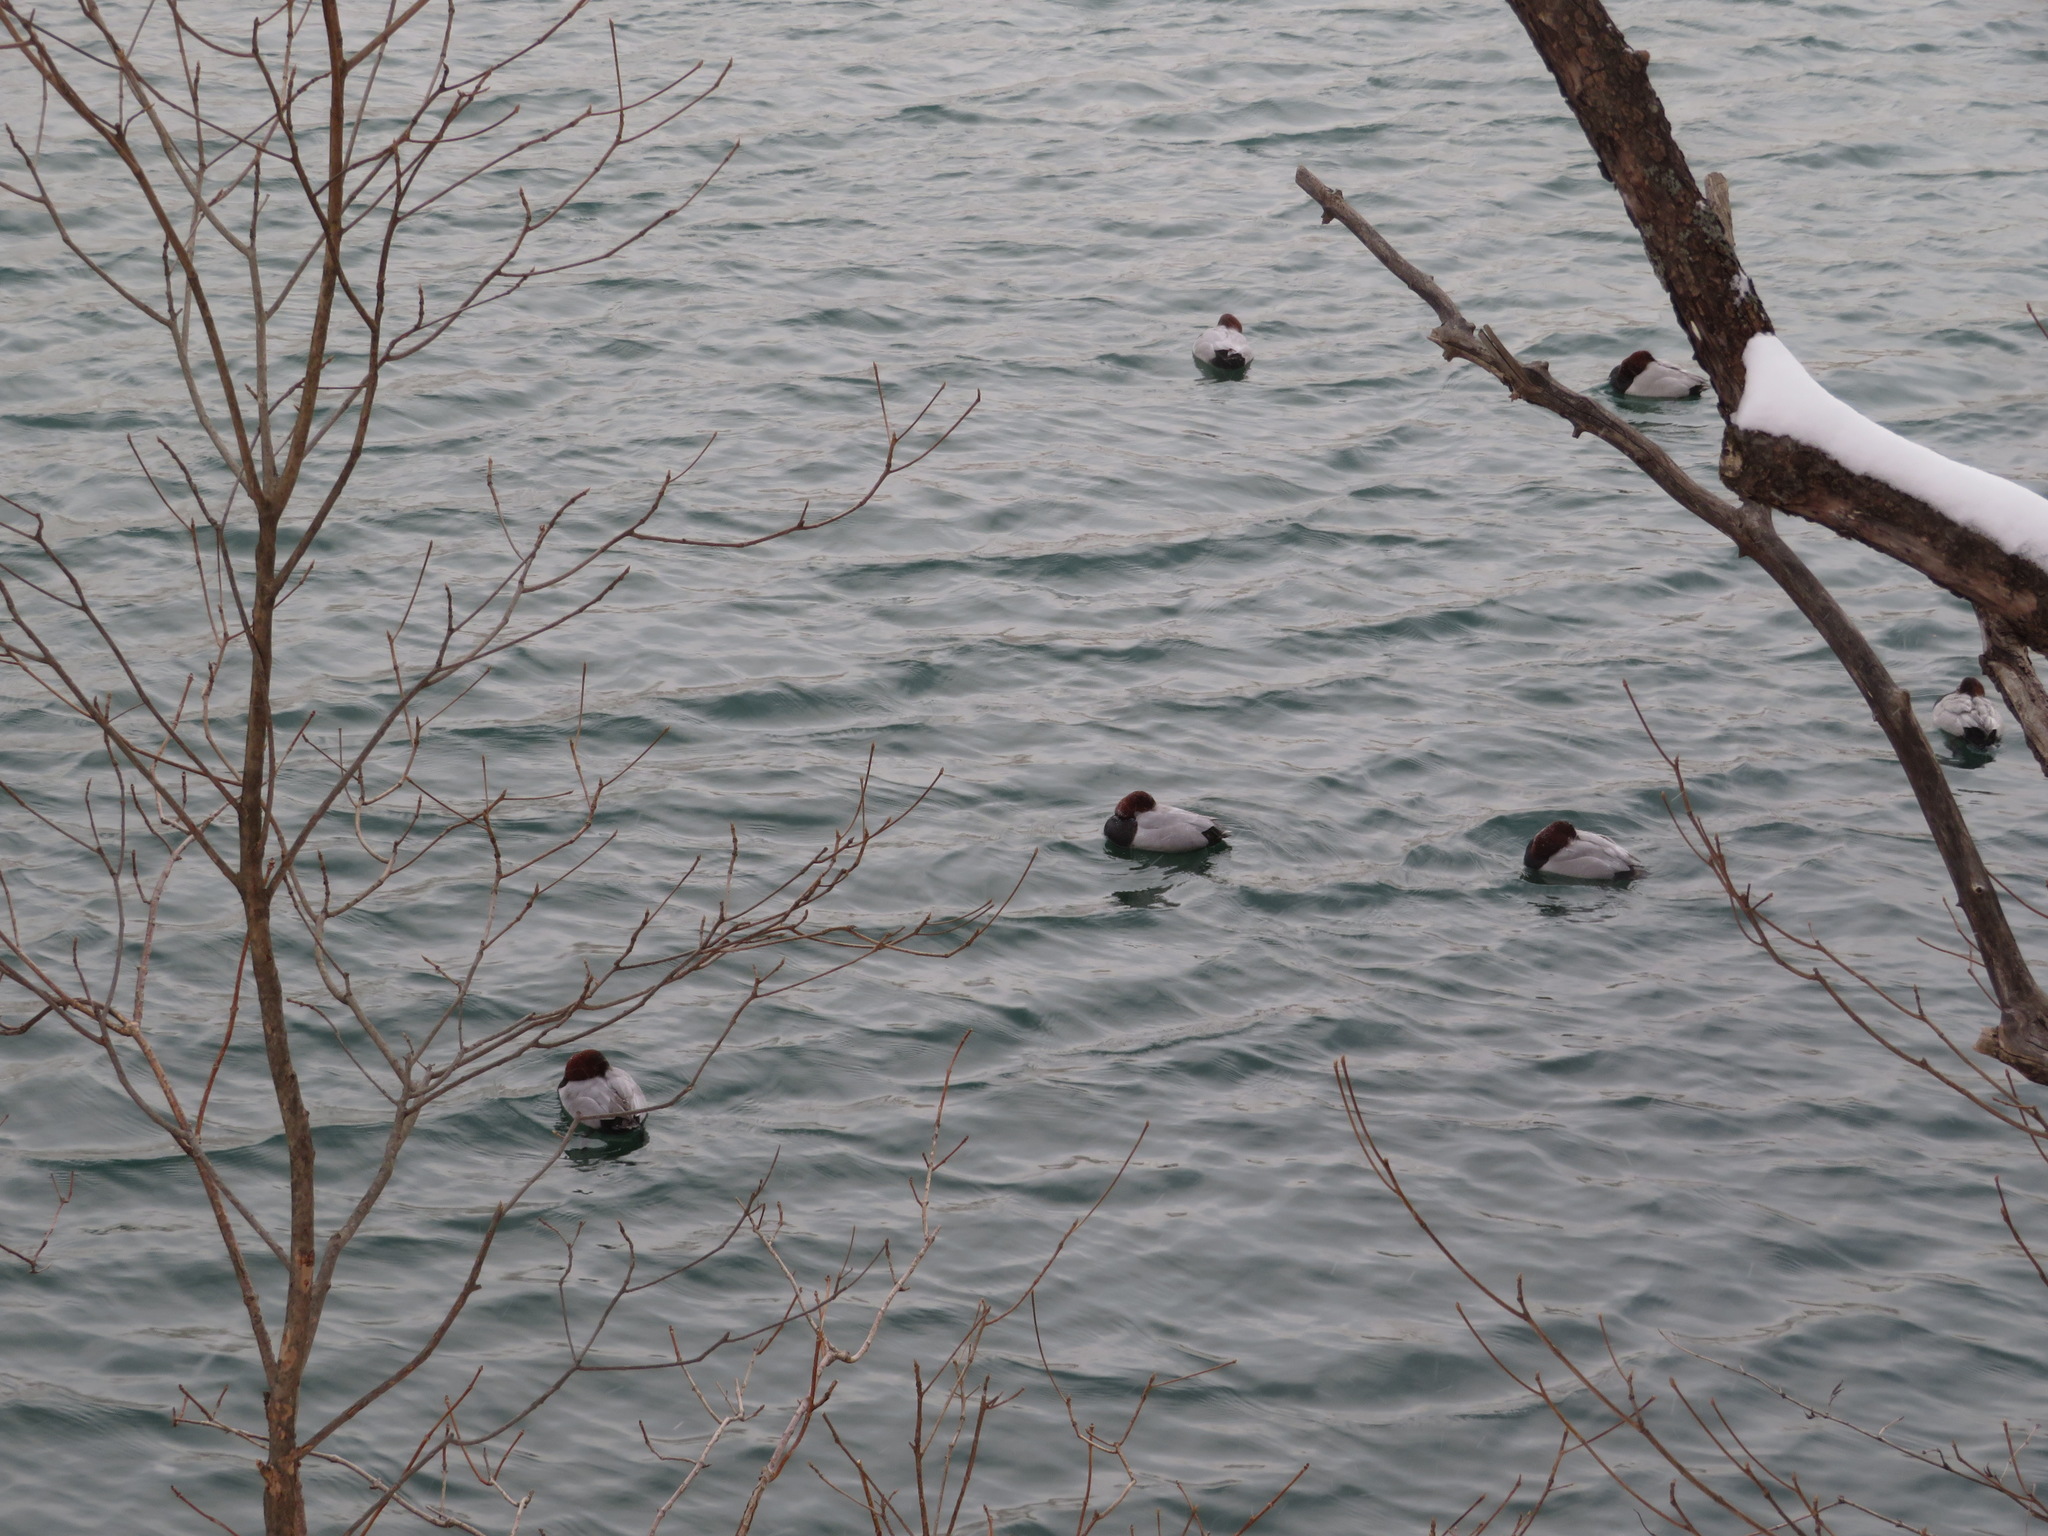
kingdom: Animalia
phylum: Chordata
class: Aves
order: Anseriformes
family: Anatidae
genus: Aythya
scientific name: Aythya ferina
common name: Common pochard
